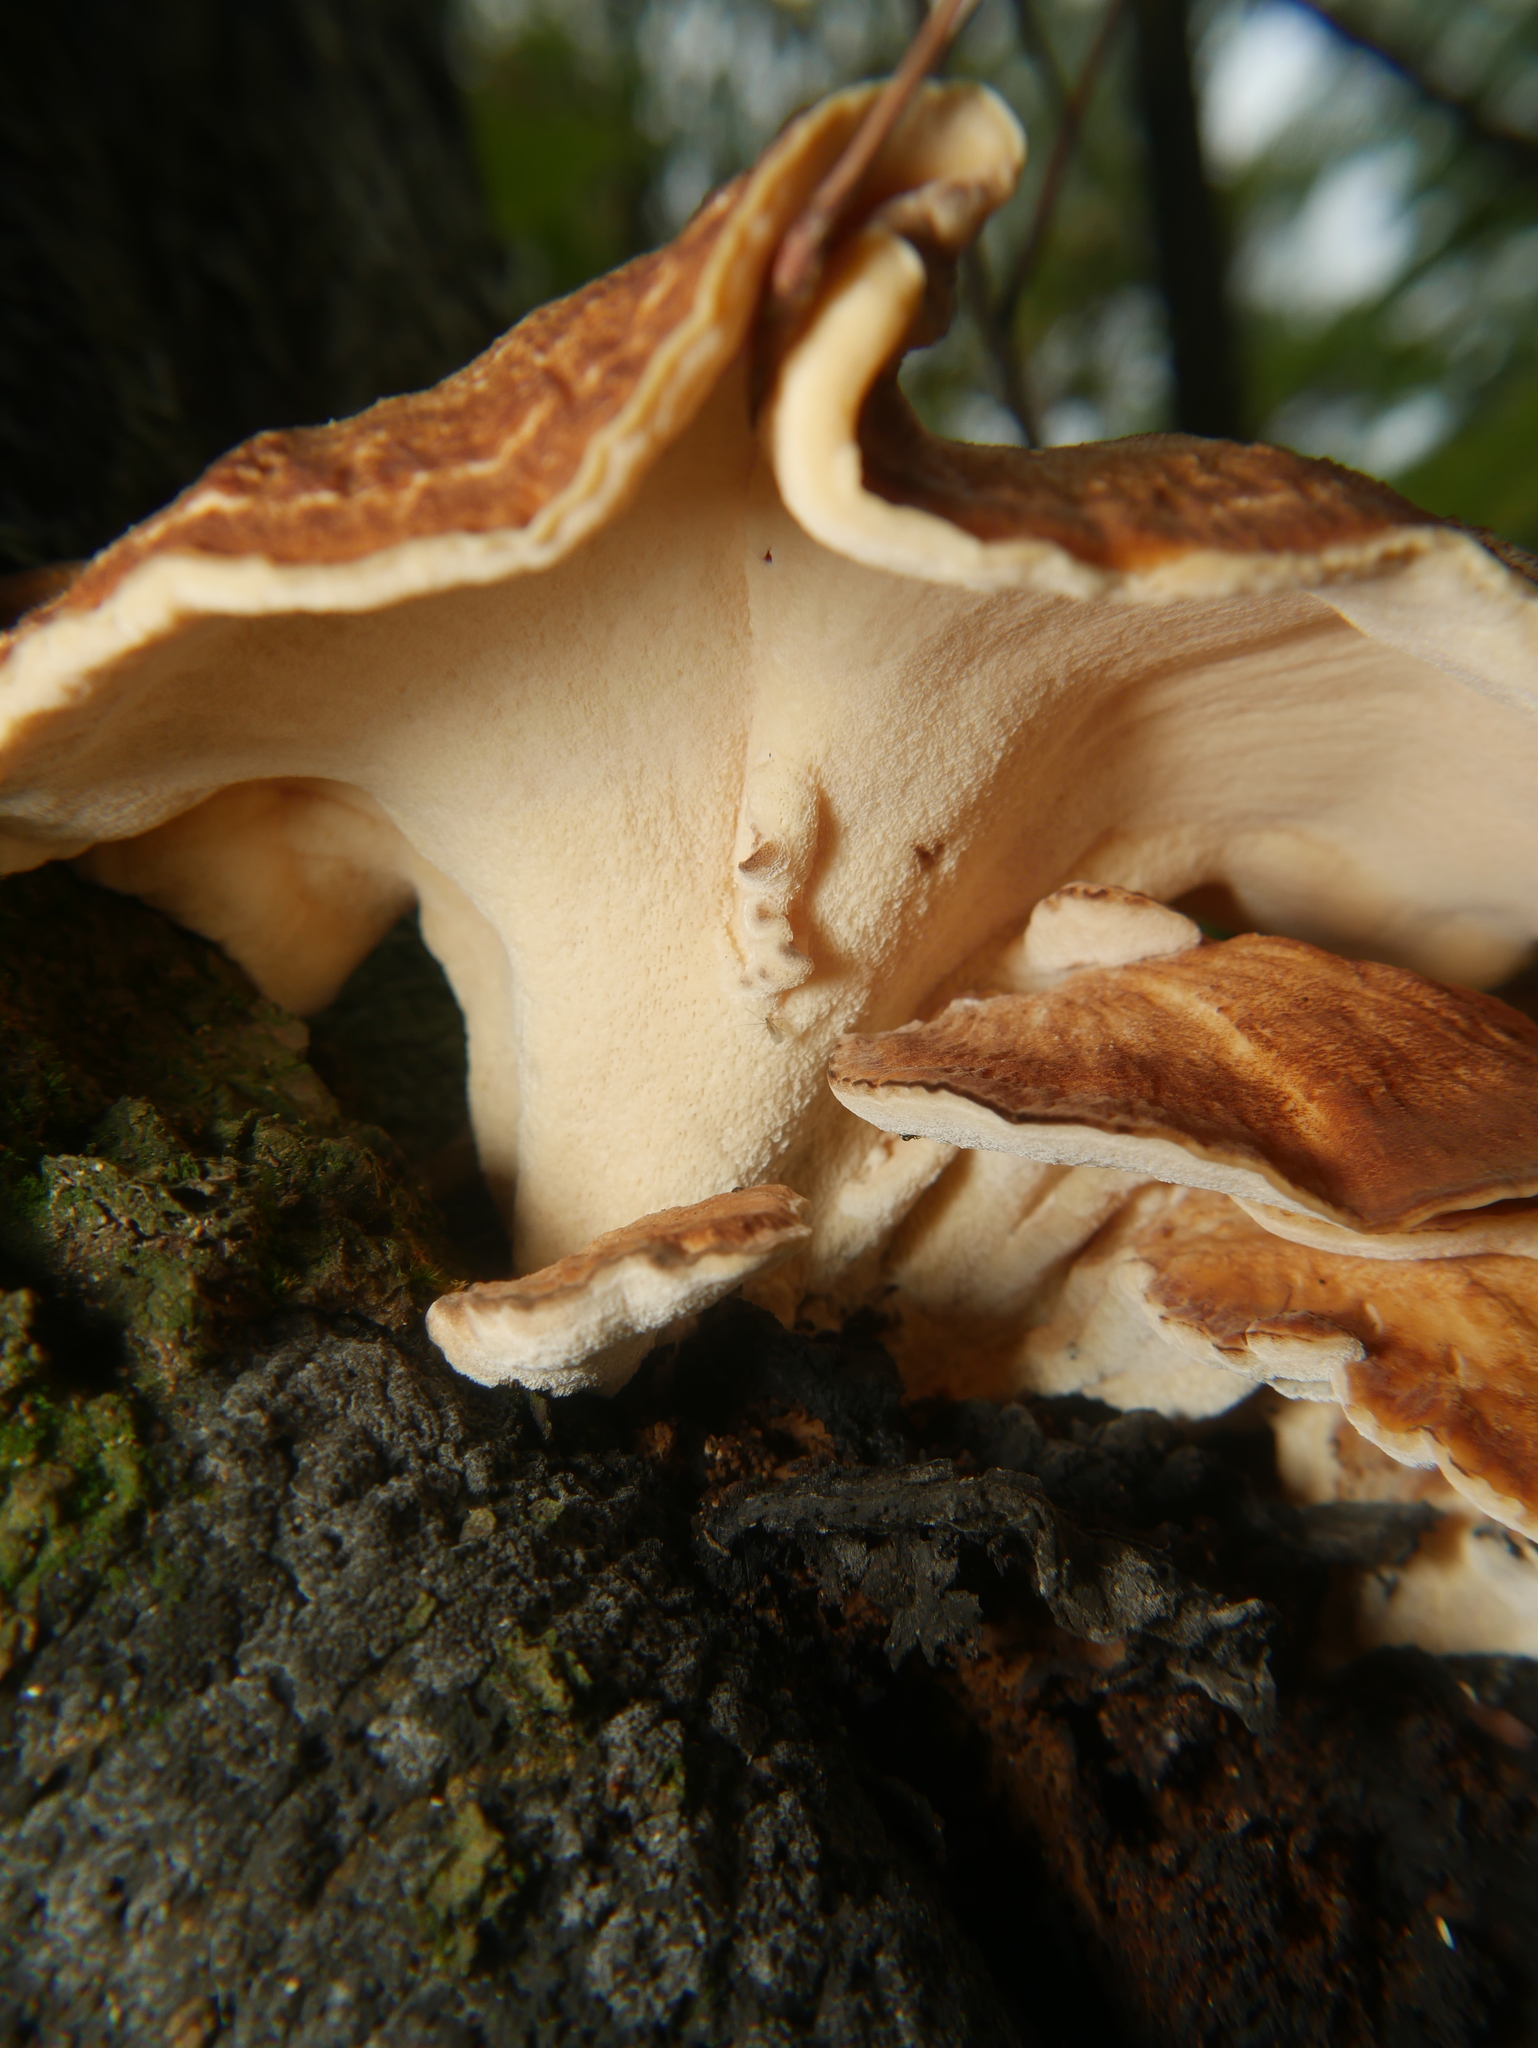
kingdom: Fungi
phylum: Basidiomycota
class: Agaricomycetes
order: Polyporales
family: Meripilaceae
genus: Meripilus
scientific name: Meripilus giganteus
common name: Giant polypore
